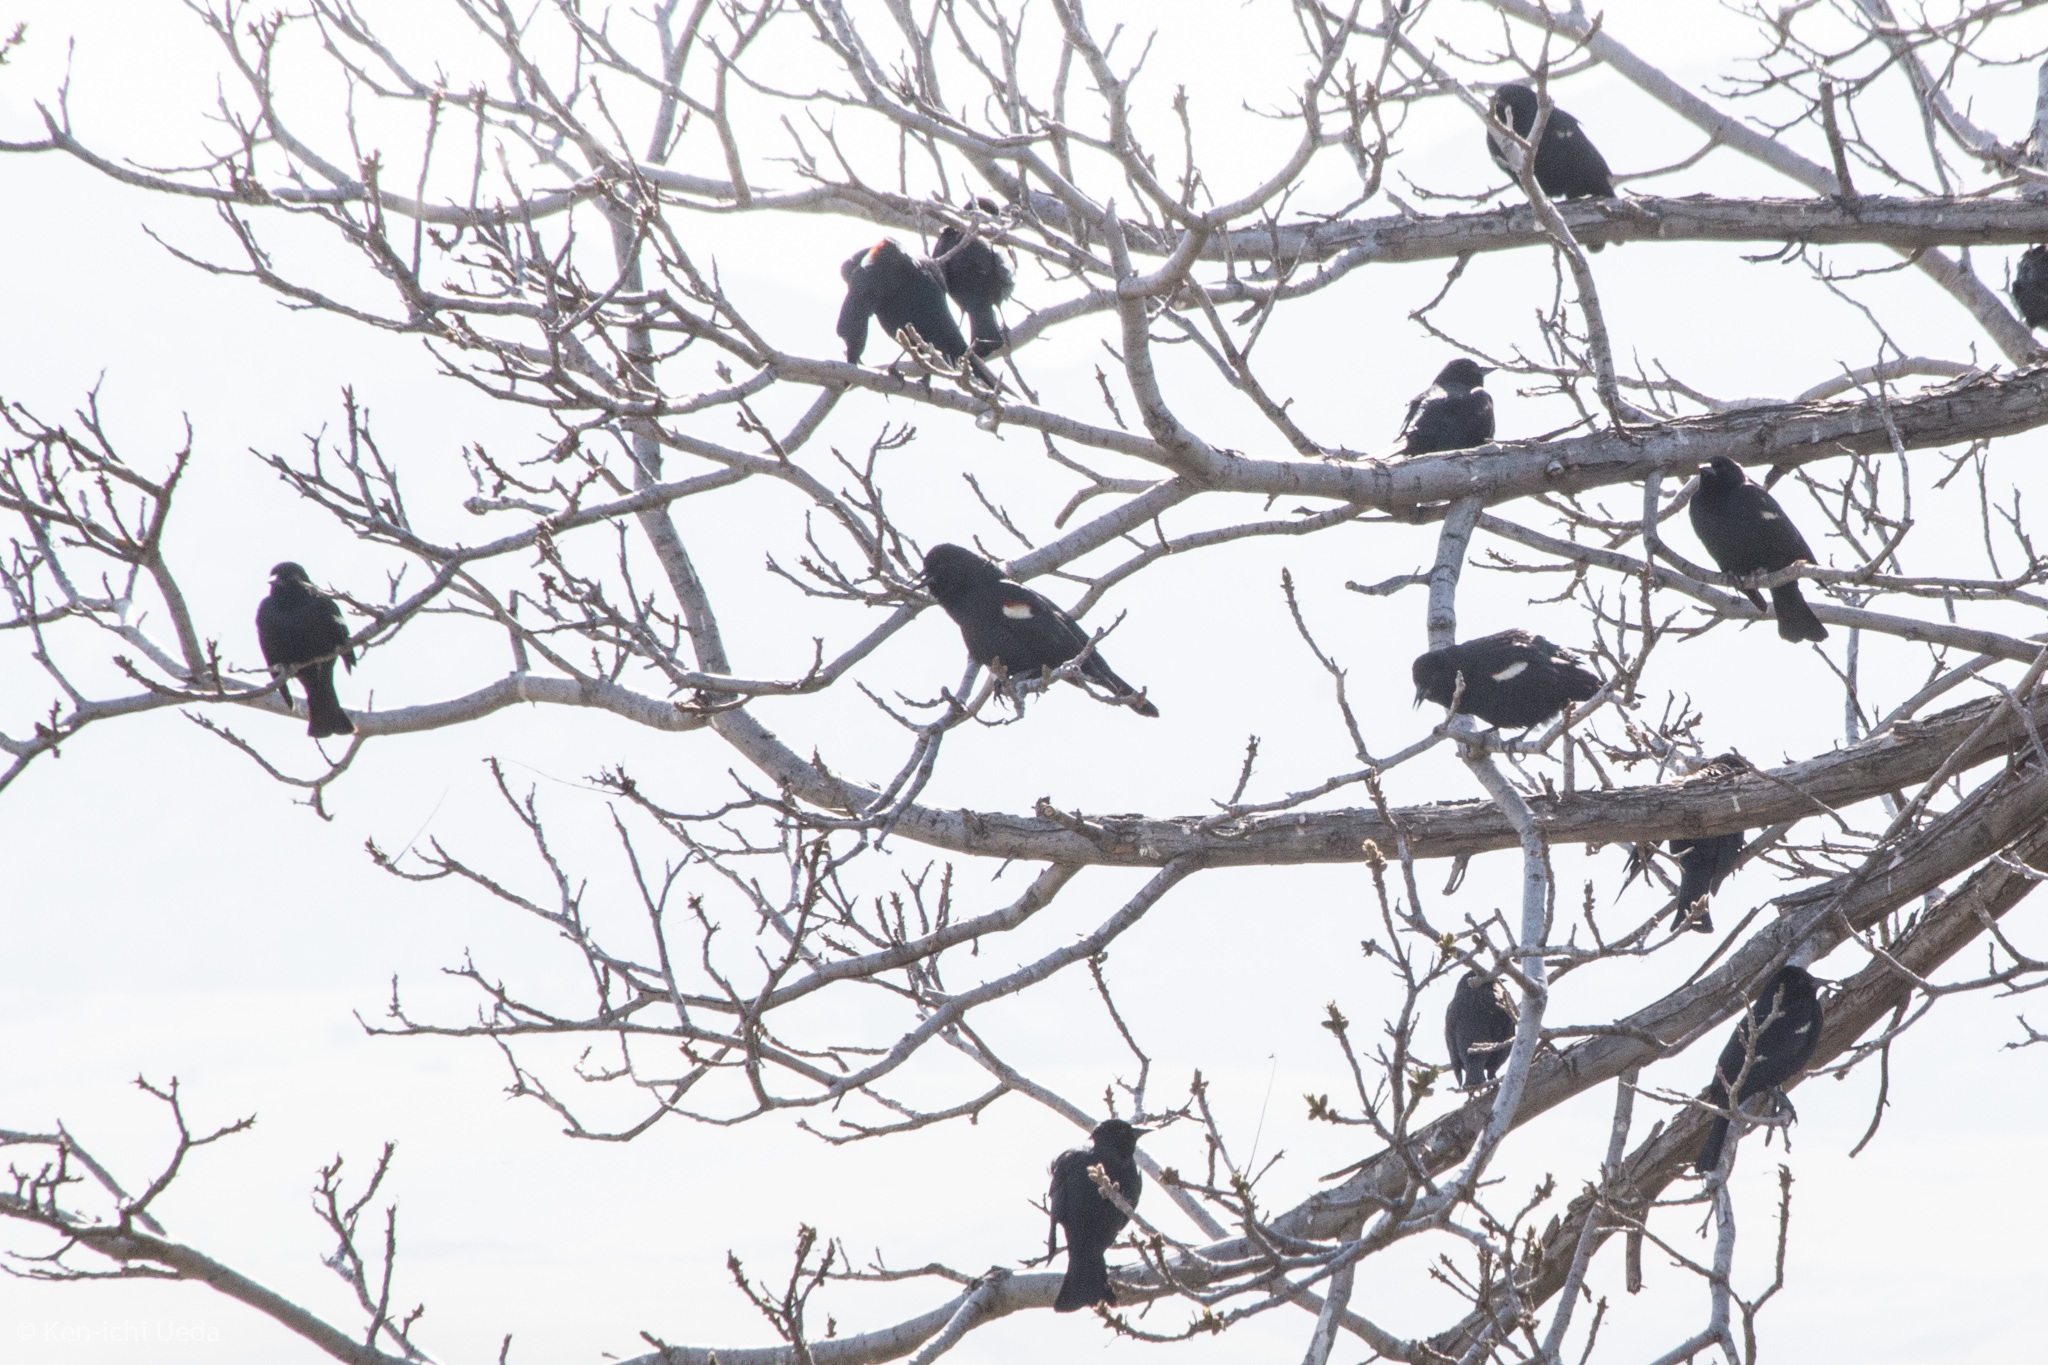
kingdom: Animalia
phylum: Chordata
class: Aves
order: Passeriformes
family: Icteridae
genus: Agelaius
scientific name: Agelaius tricolor
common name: Tricolored blackbird
